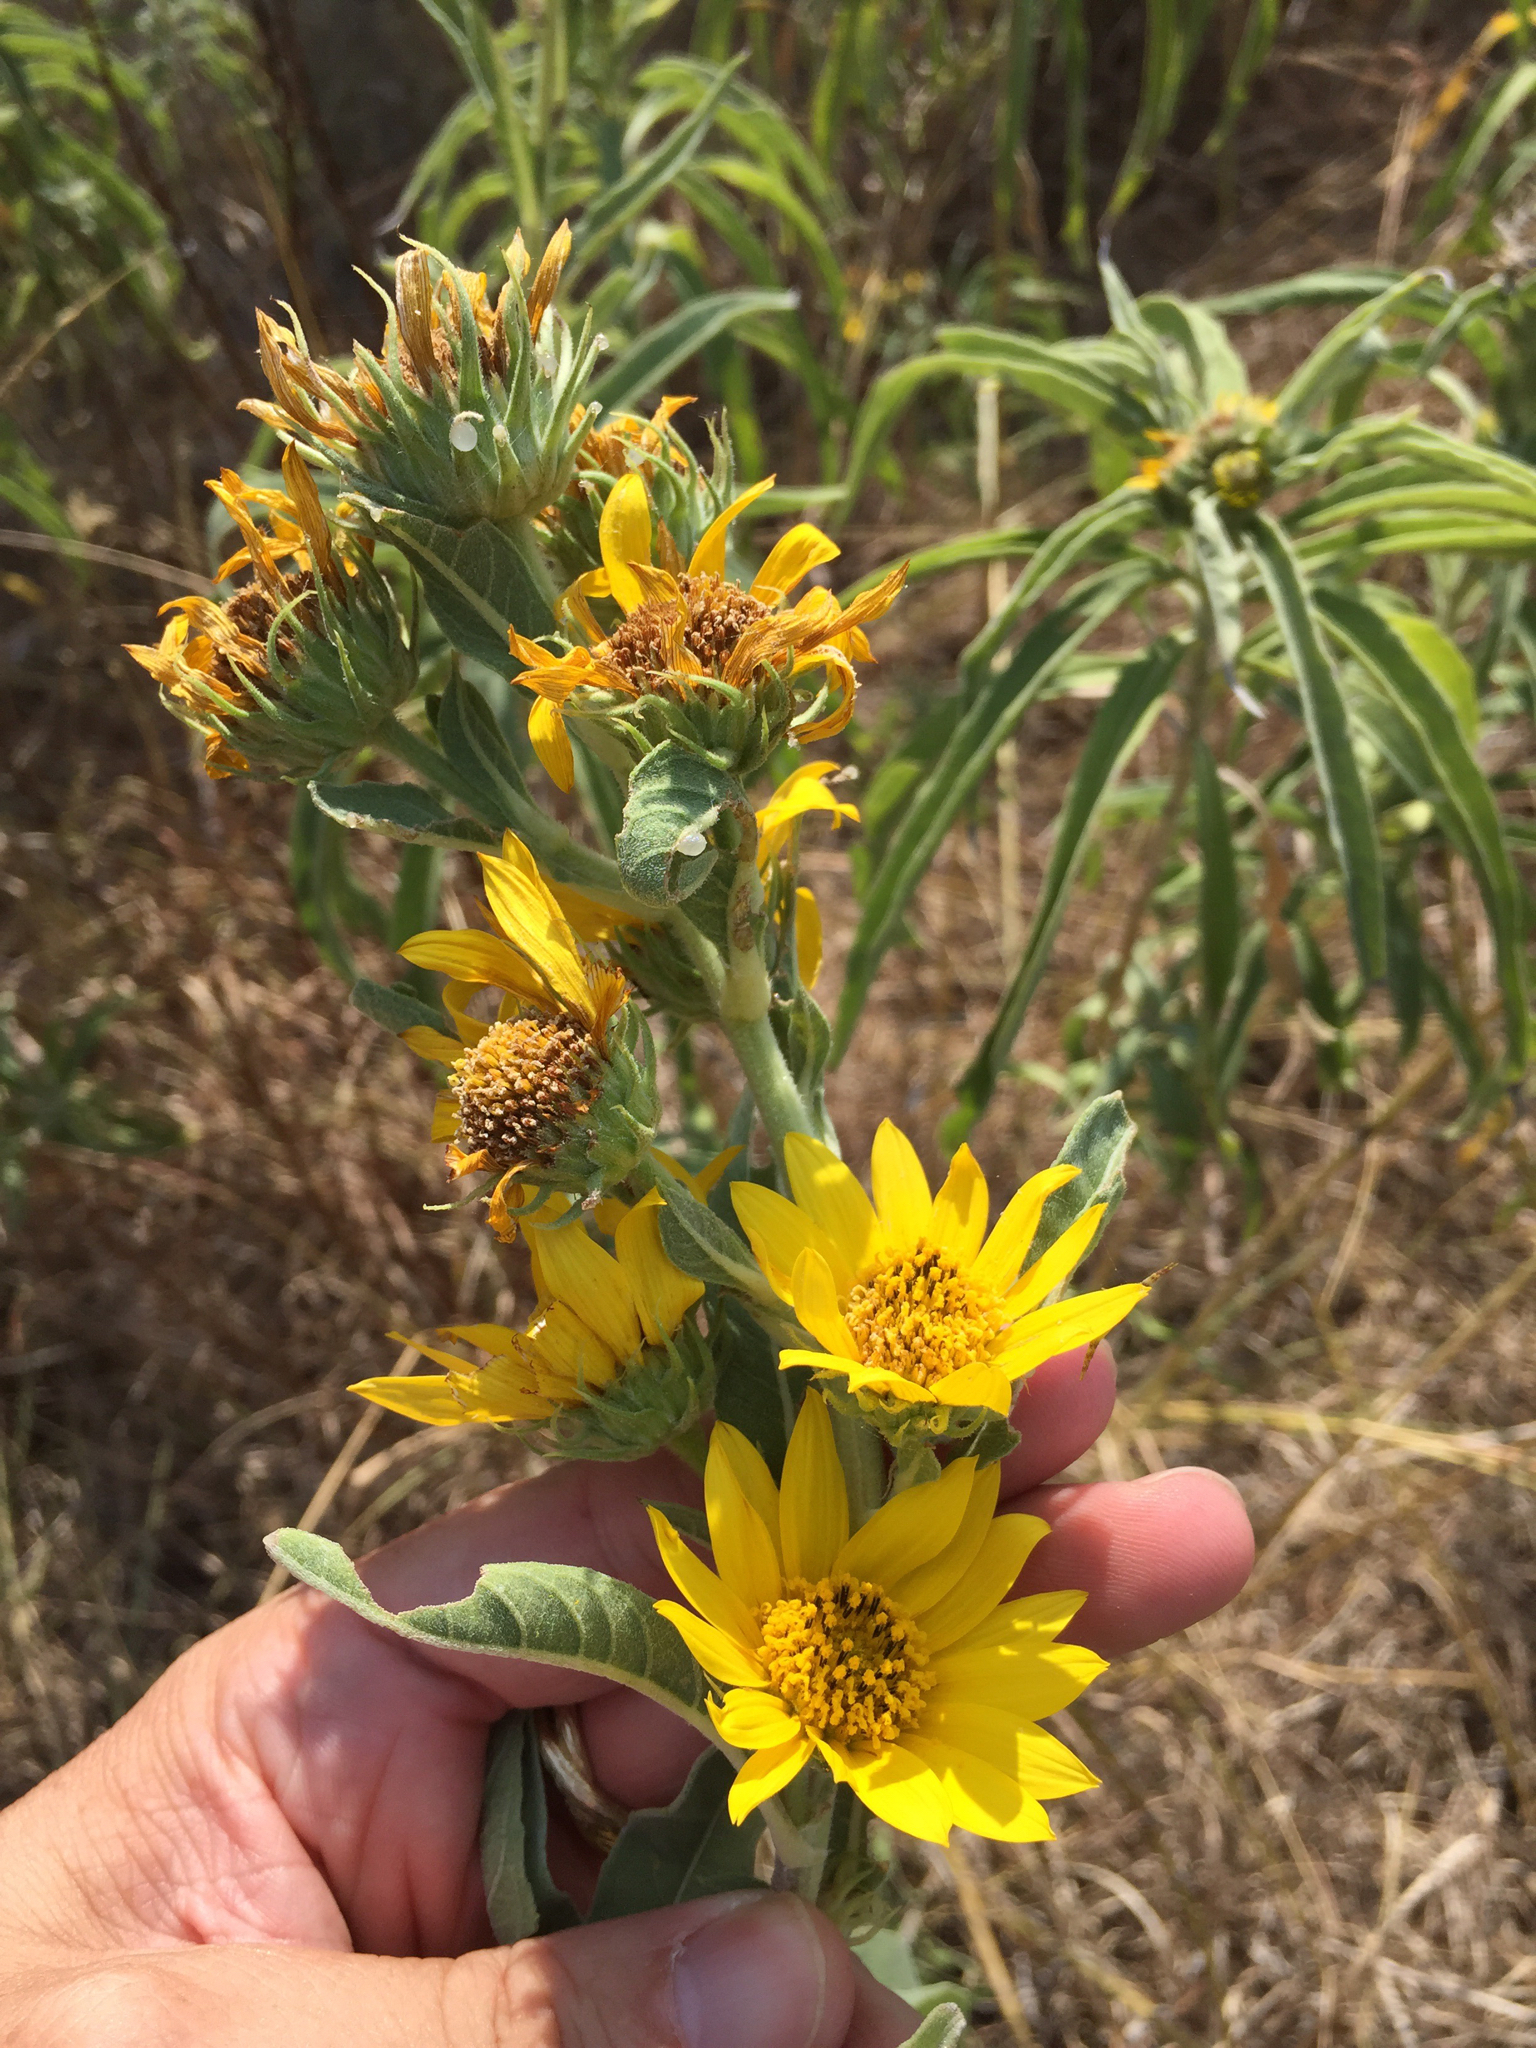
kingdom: Plantae
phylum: Tracheophyta
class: Magnoliopsida
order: Asterales
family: Asteraceae
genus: Helianthus
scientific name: Helianthus maximiliani
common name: Maximilian's sunflower
